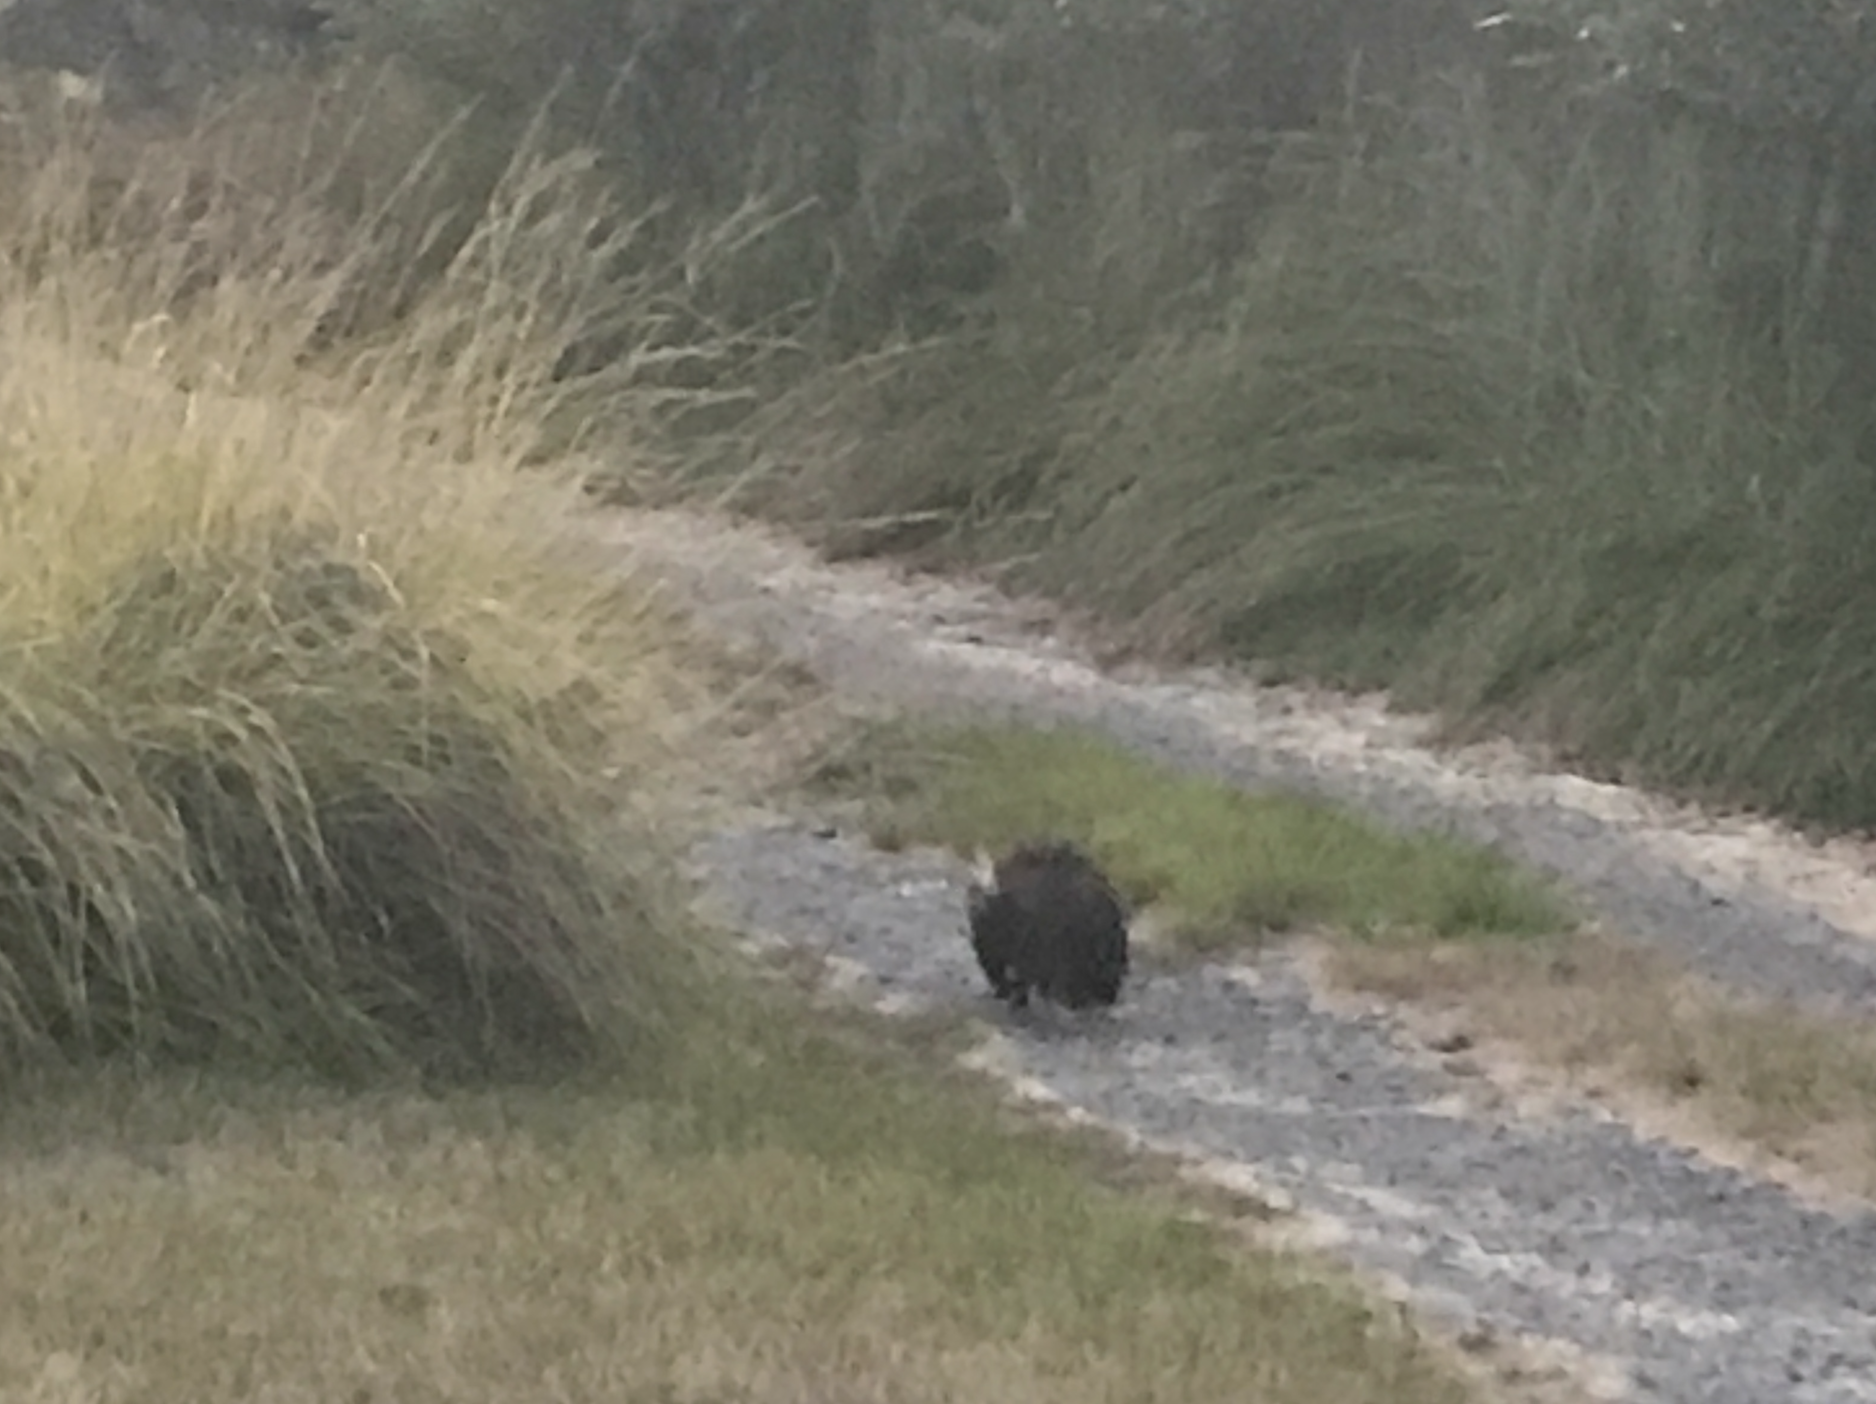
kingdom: Animalia
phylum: Chordata
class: Mammalia
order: Carnivora
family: Mephitidae
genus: Mephitis
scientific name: Mephitis mephitis
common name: Striped skunk
